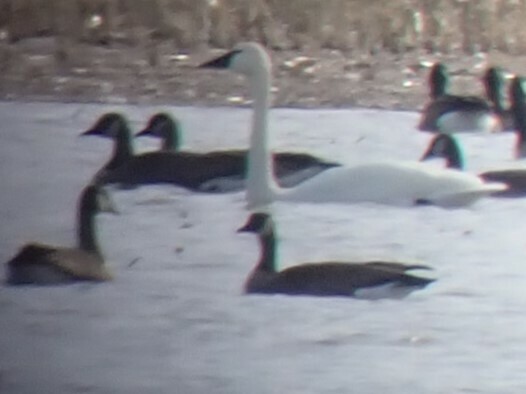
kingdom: Animalia
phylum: Chordata
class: Aves
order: Anseriformes
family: Anatidae
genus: Cygnus
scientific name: Cygnus columbianus
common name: Tundra swan
